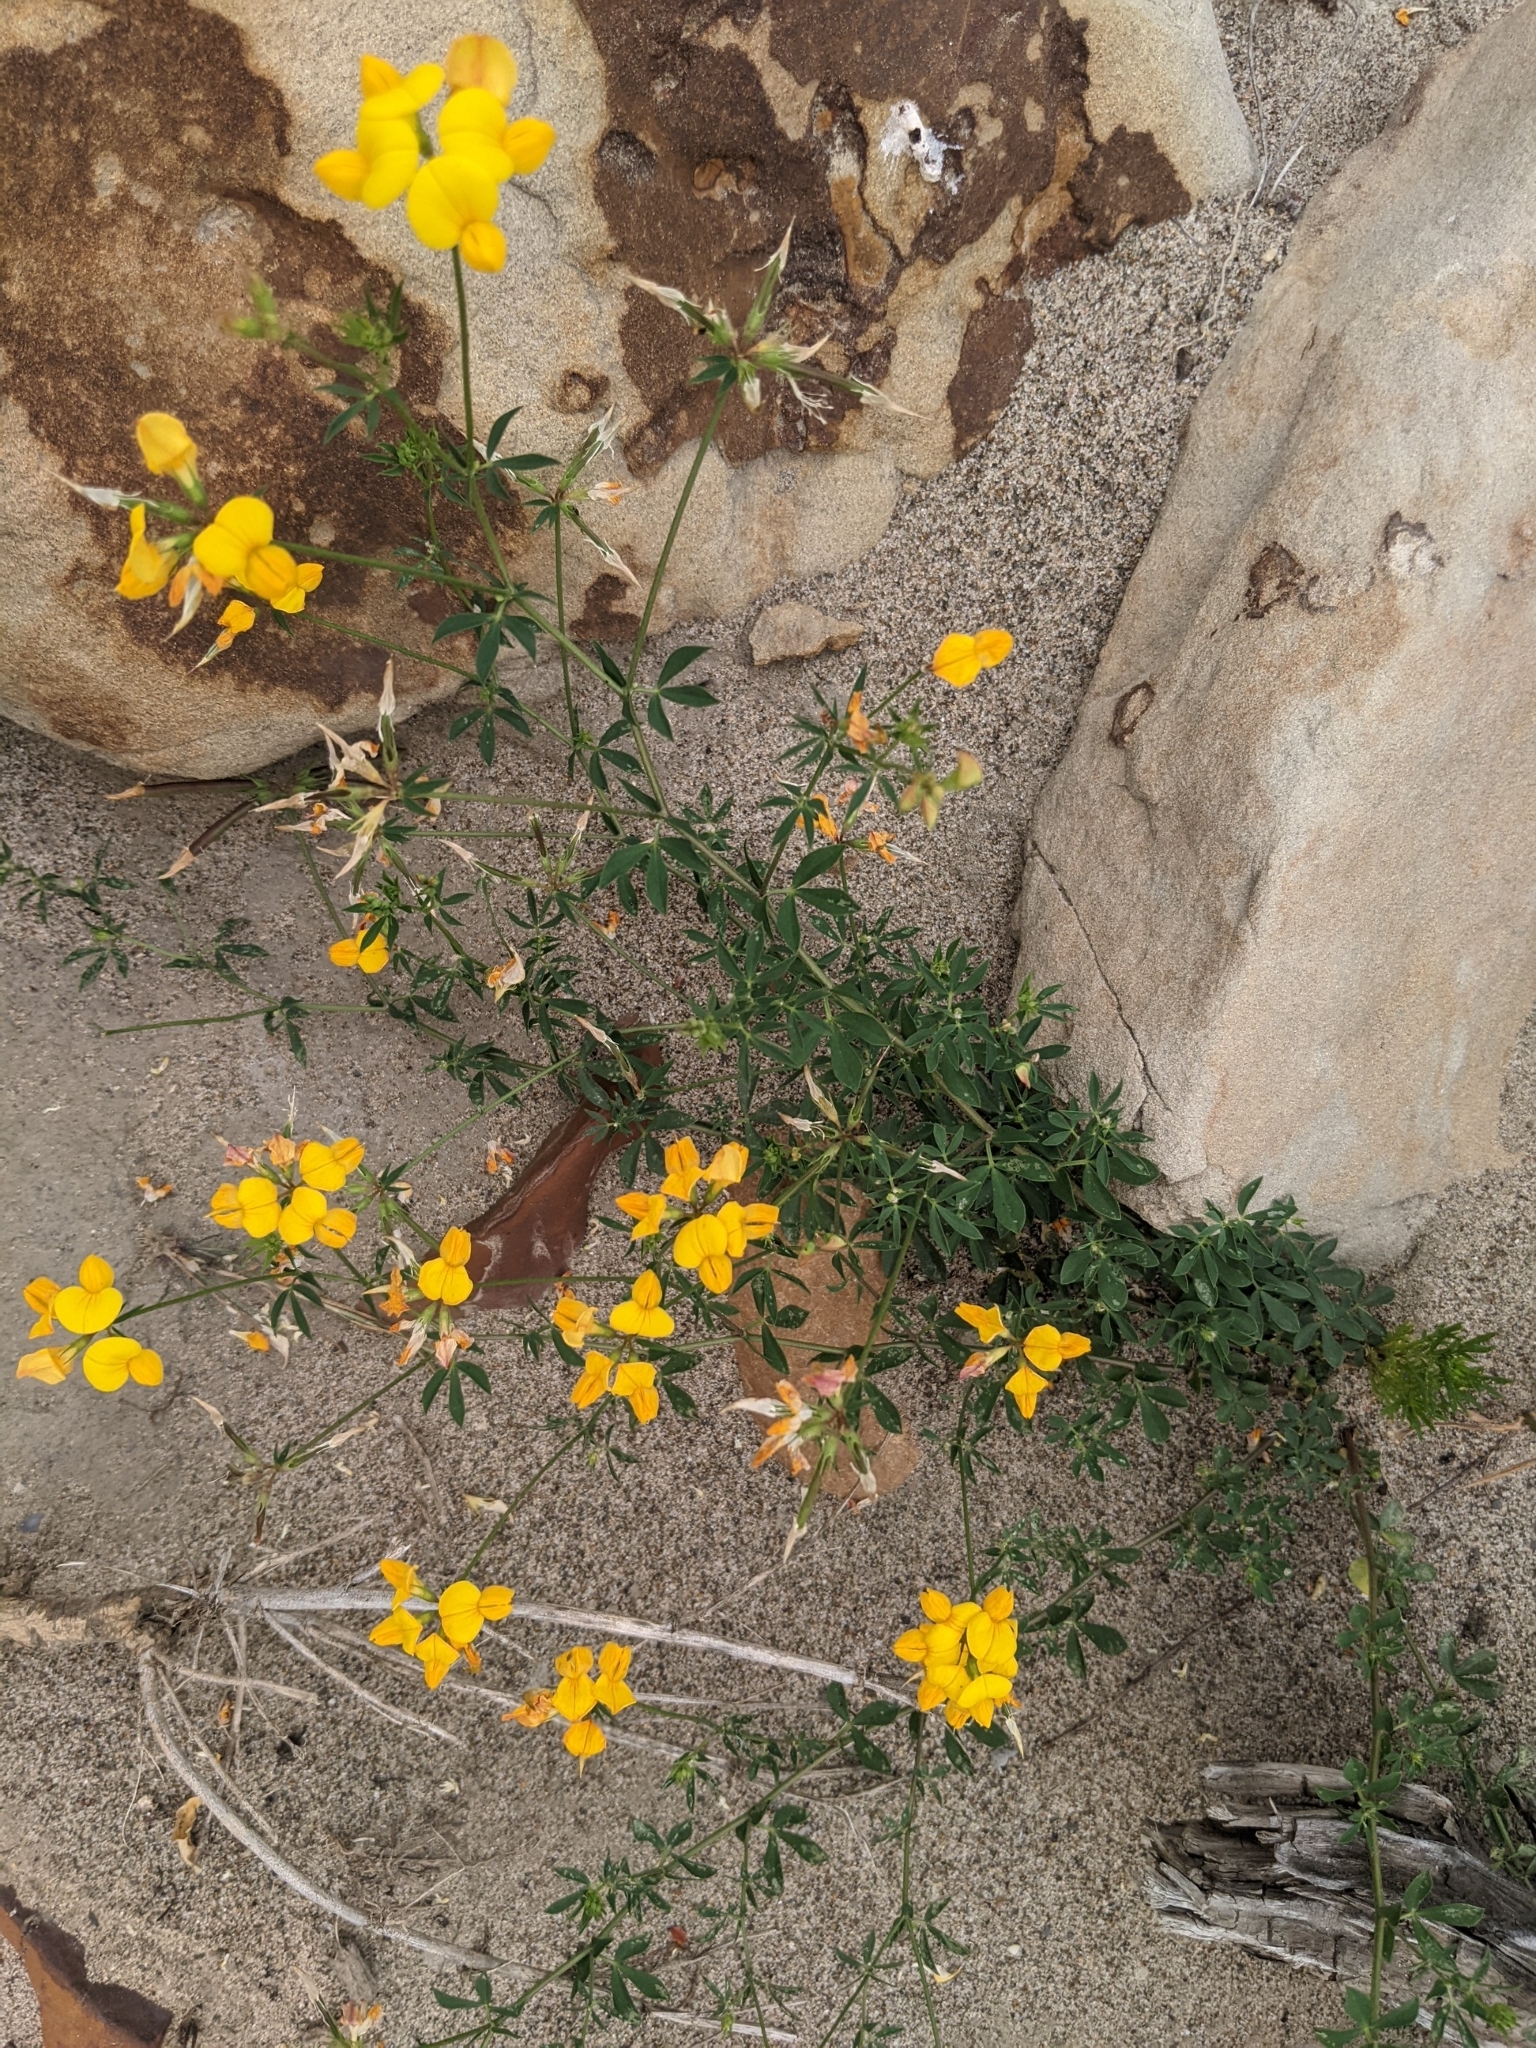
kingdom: Plantae
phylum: Tracheophyta
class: Magnoliopsida
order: Fabales
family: Fabaceae
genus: Lotus
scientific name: Lotus corniculatus
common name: Common bird's-foot-trefoil
